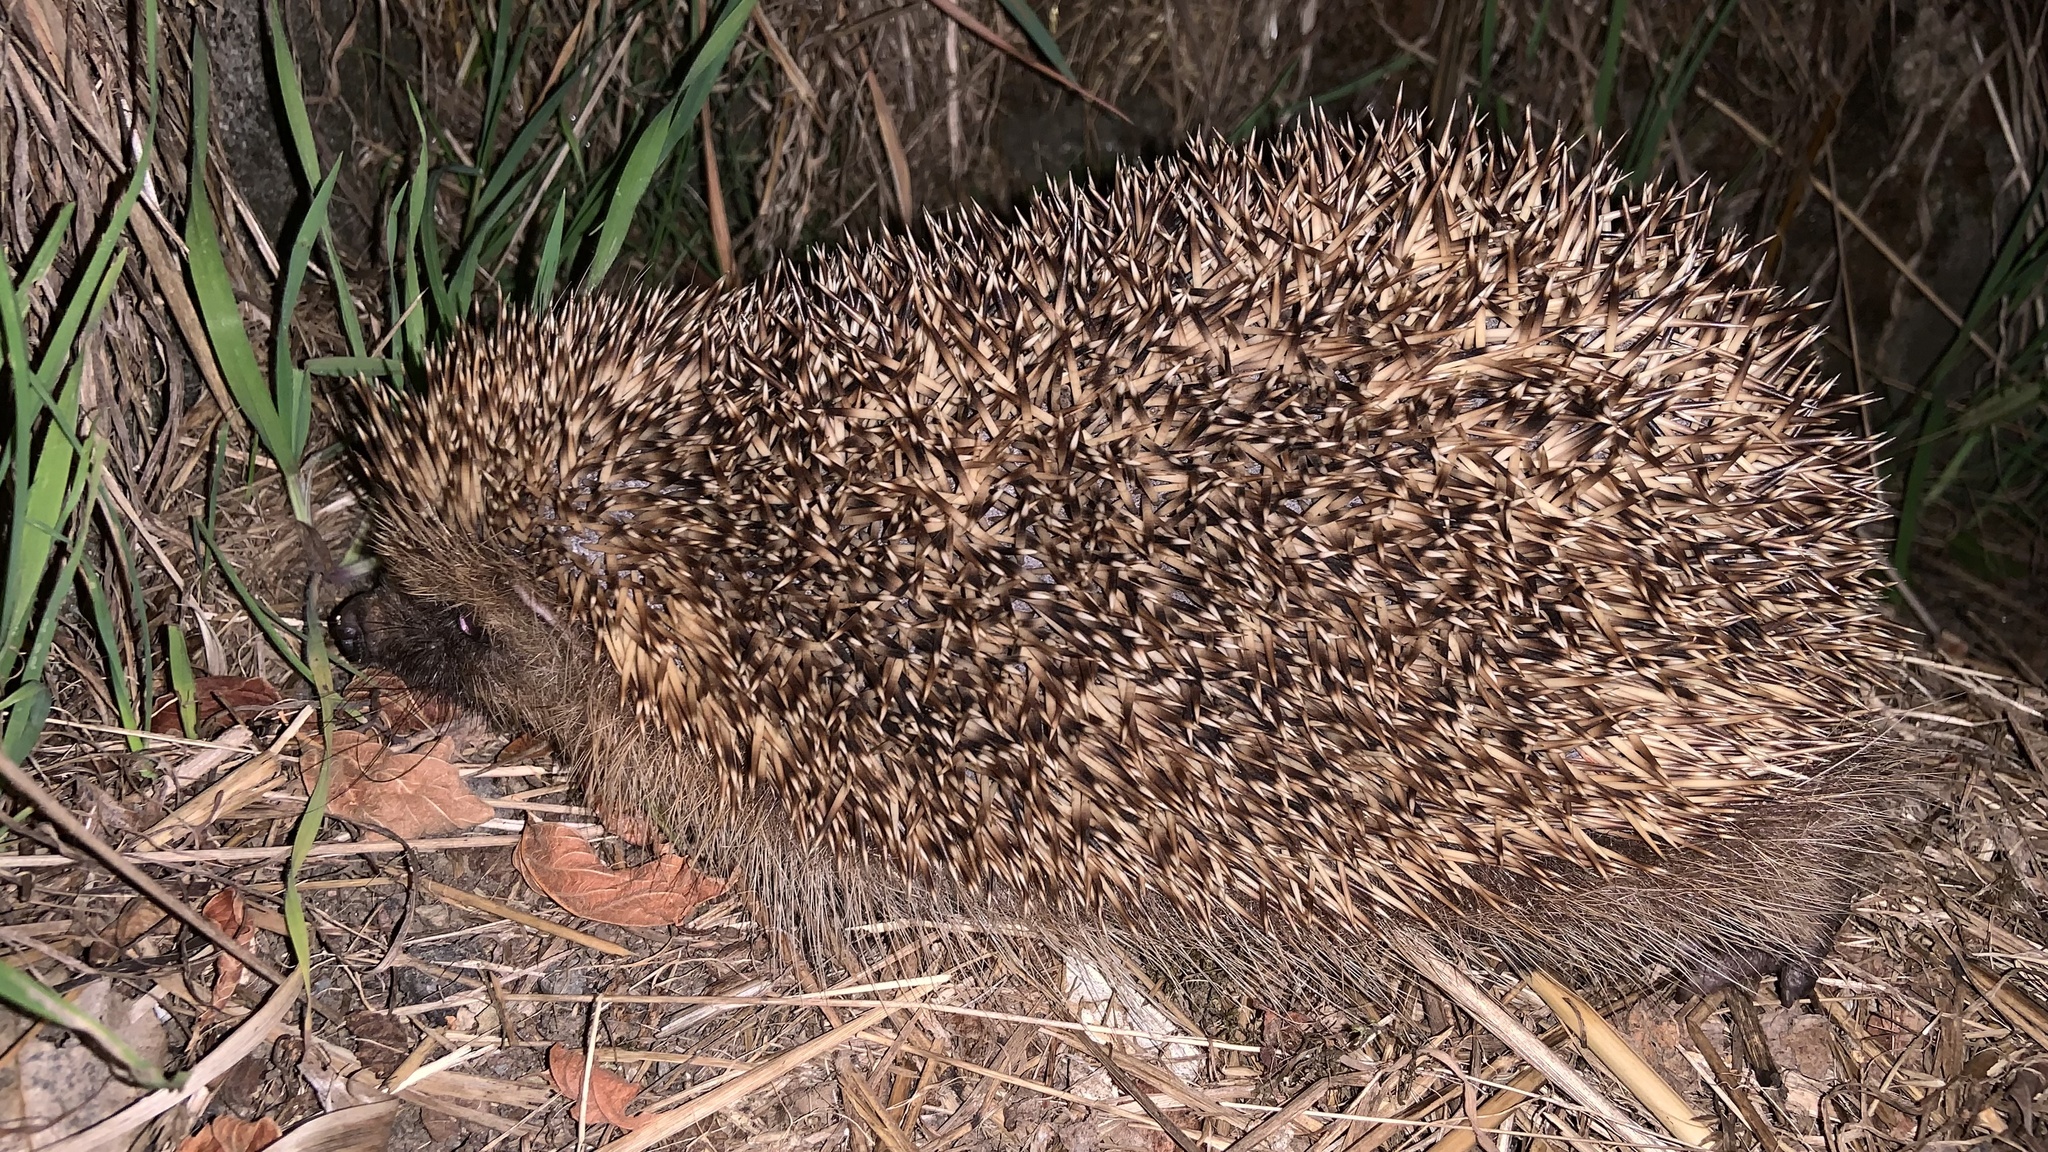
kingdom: Animalia
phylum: Chordata
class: Mammalia
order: Erinaceomorpha
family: Erinaceidae
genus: Erinaceus
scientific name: Erinaceus europaeus
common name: West european hedgehog
